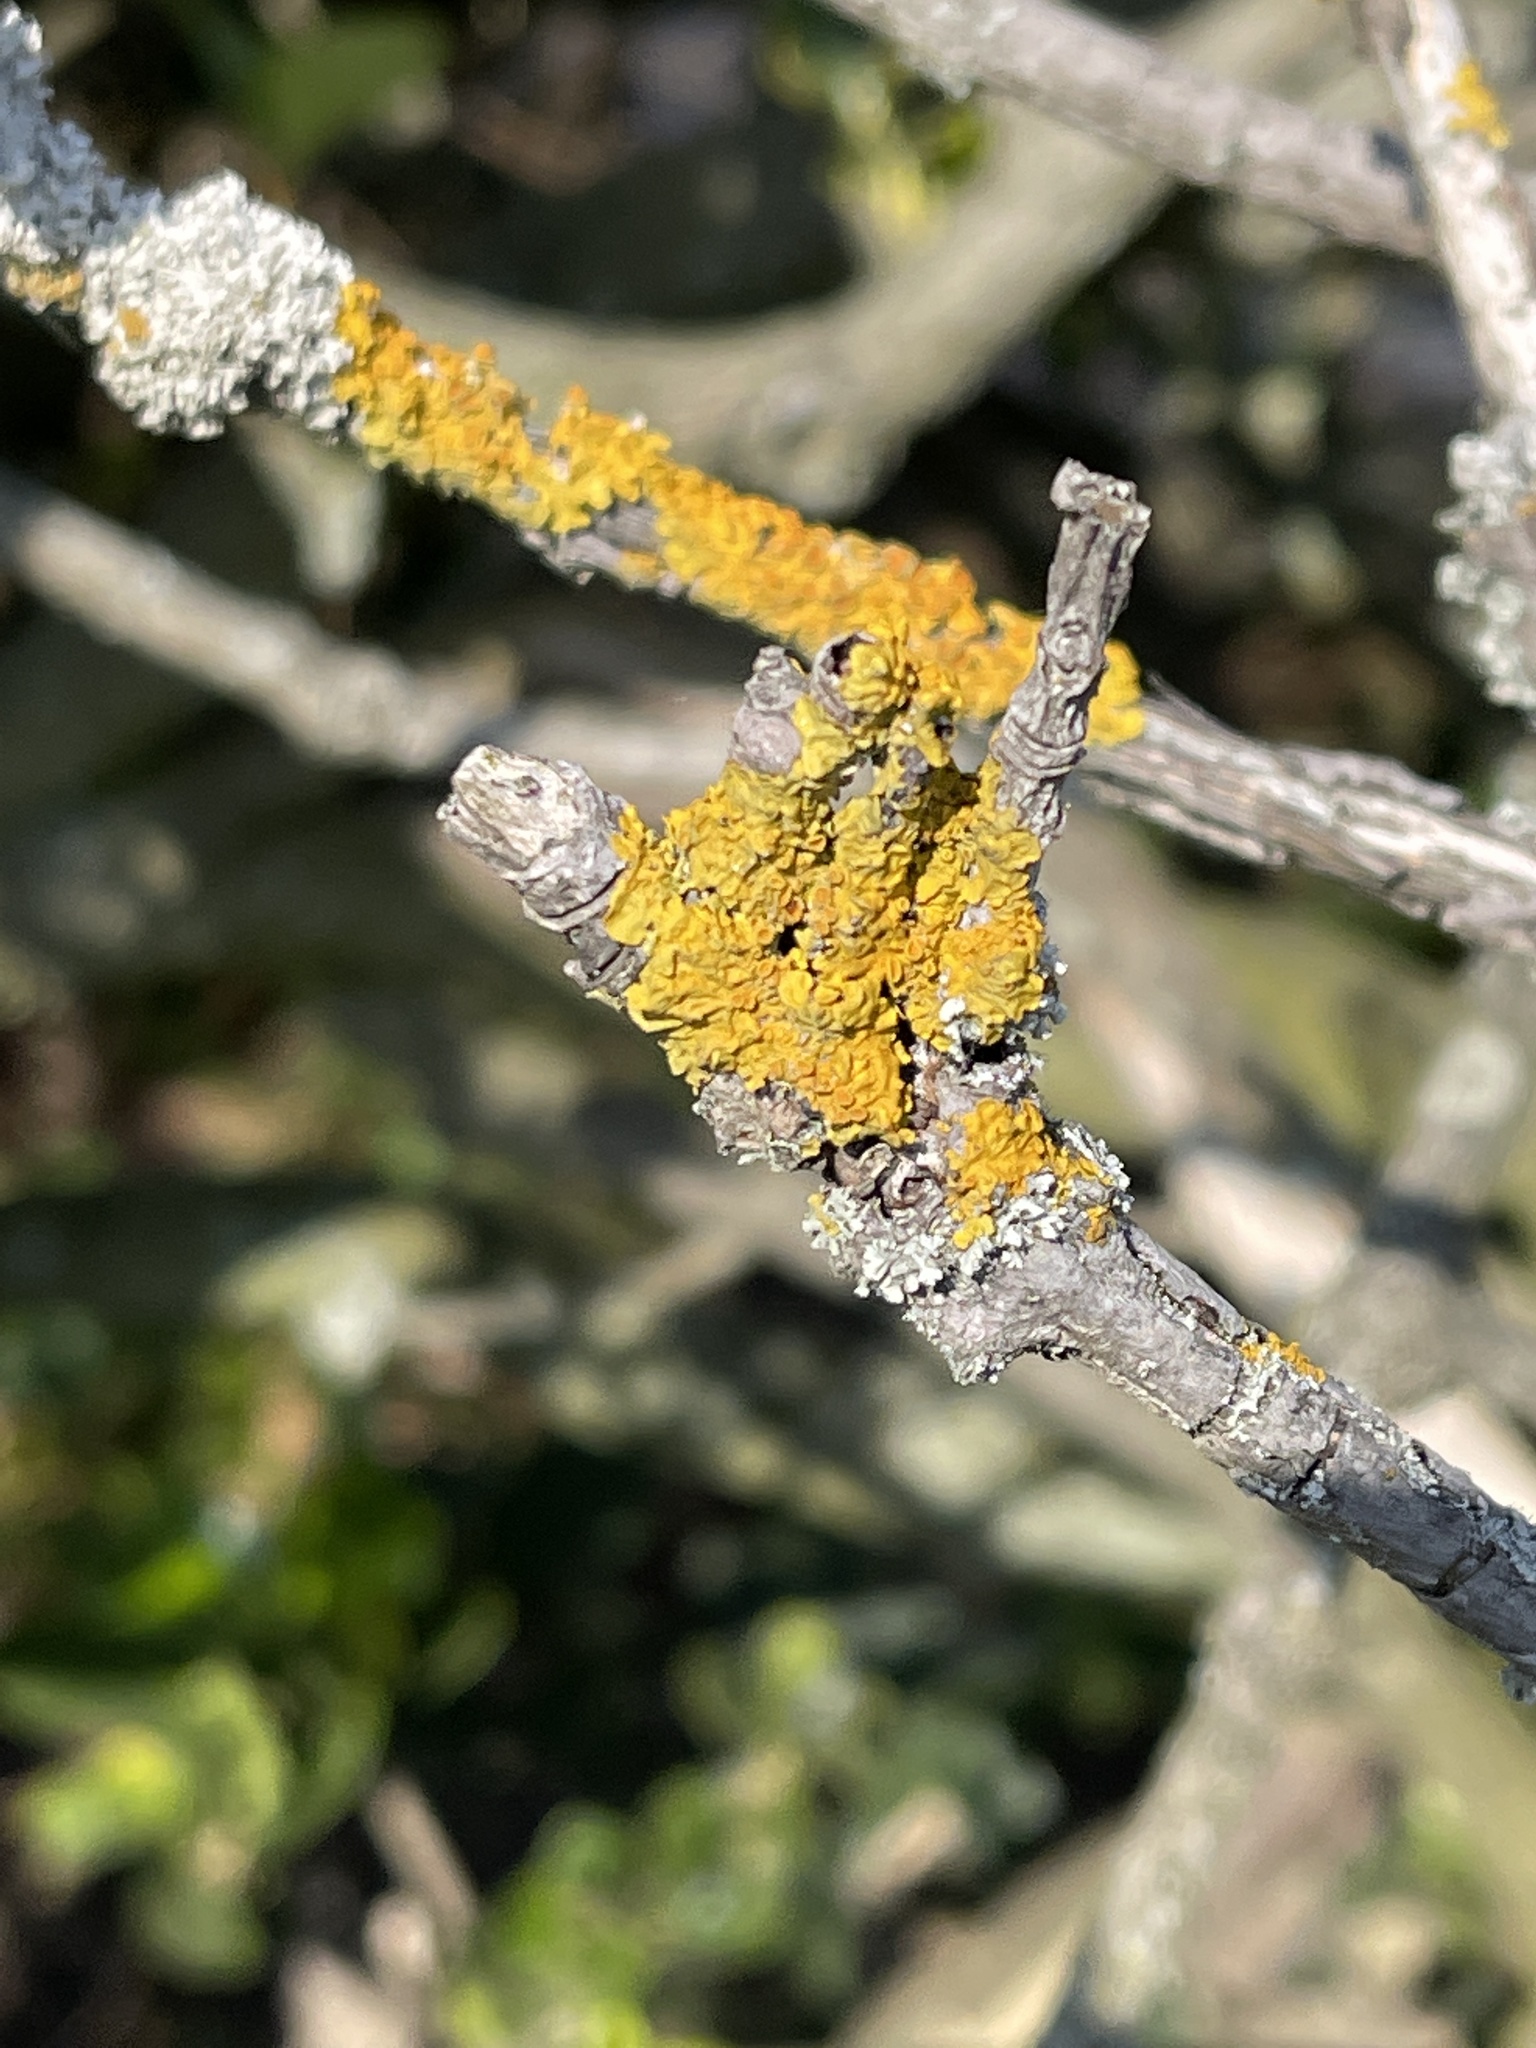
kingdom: Fungi
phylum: Ascomycota
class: Lecanoromycetes
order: Teloschistales
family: Teloschistaceae
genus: Xanthoria
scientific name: Xanthoria parietina
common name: Common orange lichen
